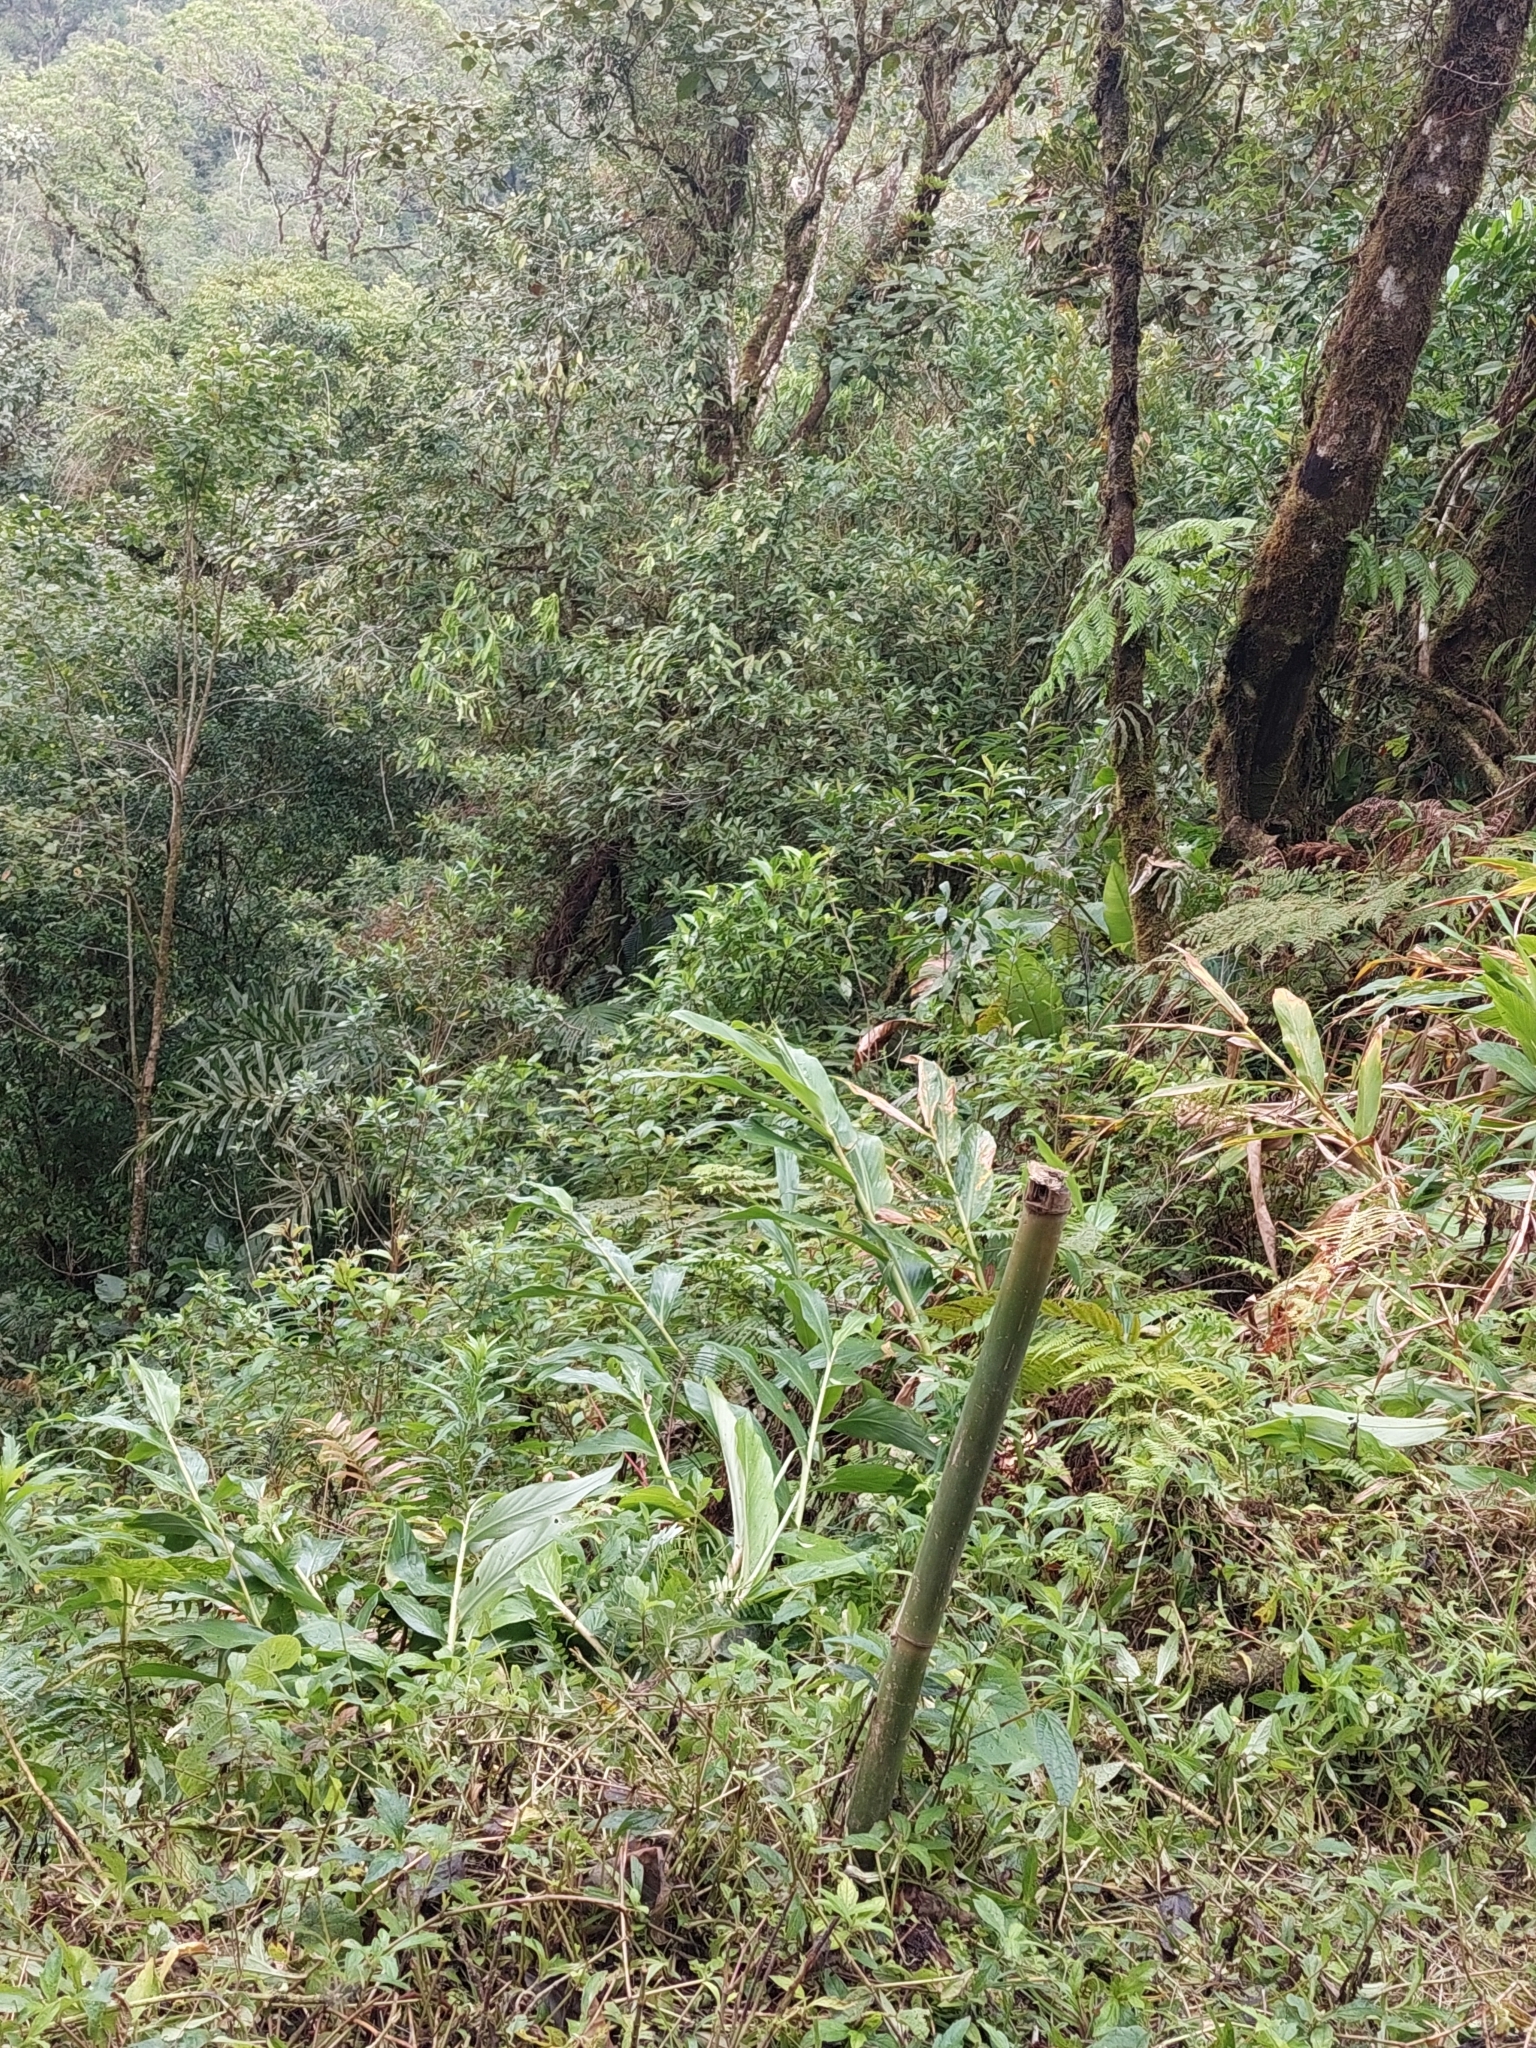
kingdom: Plantae
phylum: Tracheophyta
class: Liliopsida
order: Zingiberales
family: Zingiberaceae
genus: Hedychium
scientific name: Hedychium coronarium
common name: White garland-lily
